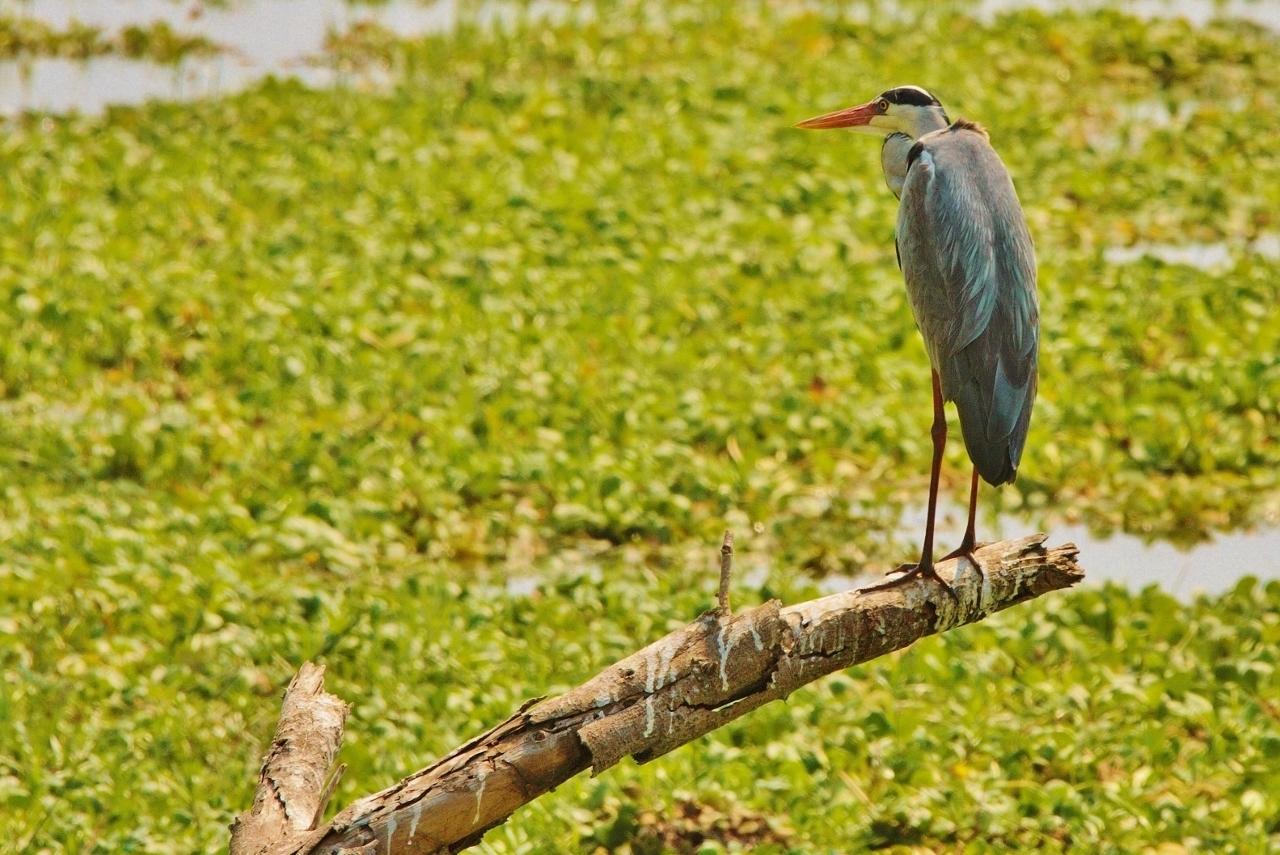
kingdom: Animalia
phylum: Chordata
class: Aves
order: Pelecaniformes
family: Ardeidae
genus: Ardea
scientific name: Ardea cinerea
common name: Grey heron
